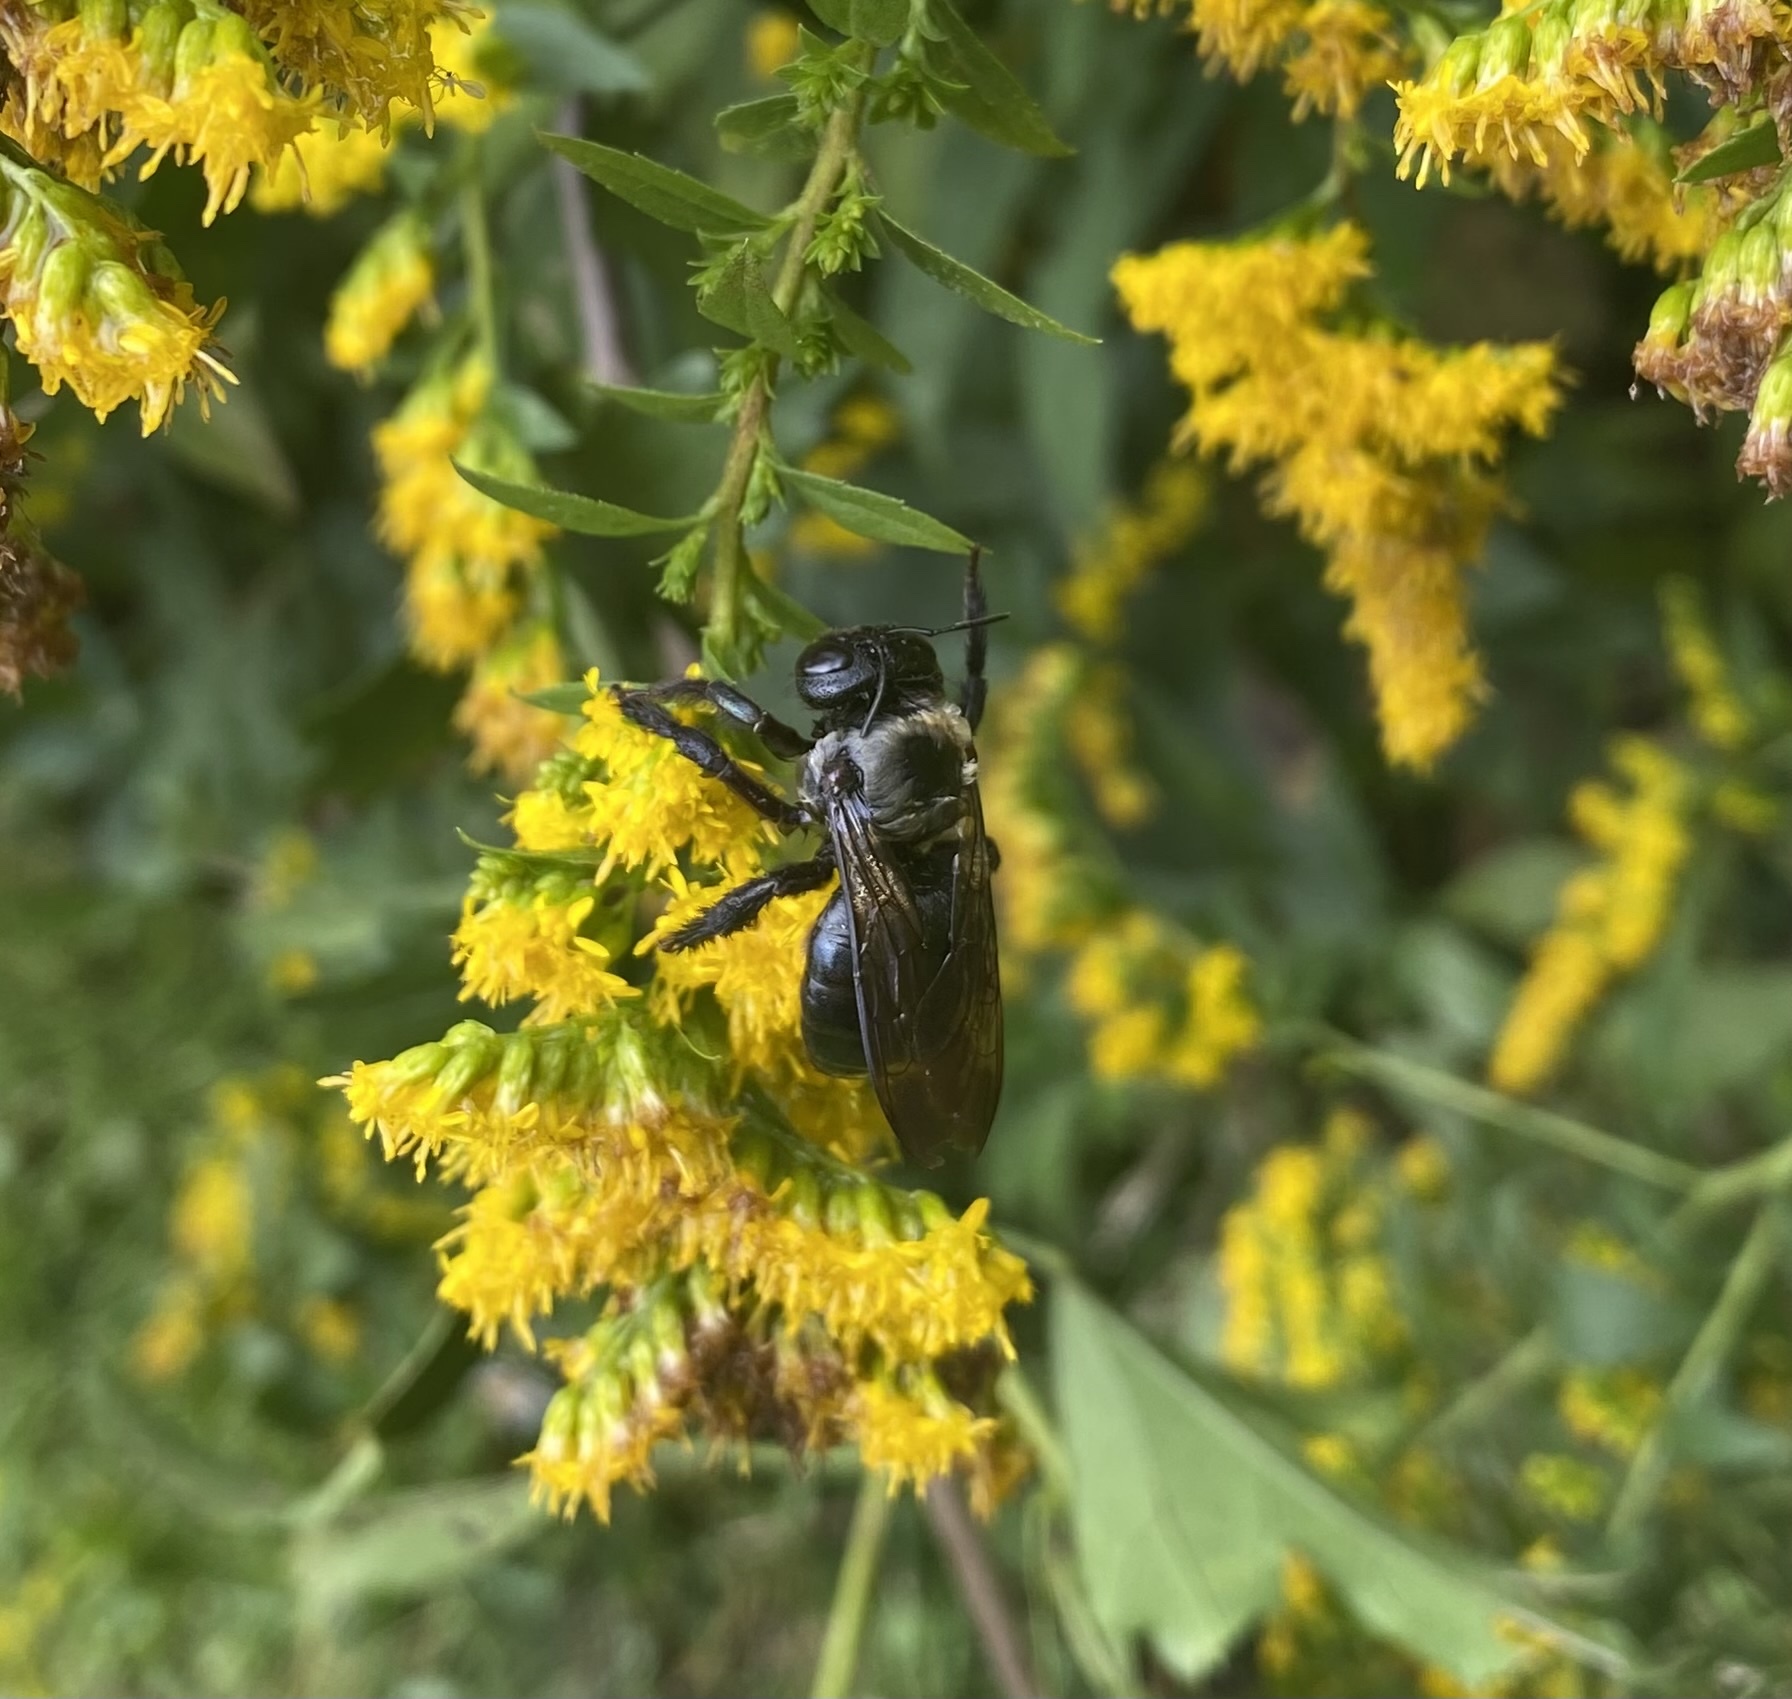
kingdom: Animalia
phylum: Arthropoda
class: Insecta
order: Hymenoptera
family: Apidae
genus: Xylocopa
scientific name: Xylocopa virginica
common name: Carpenter bee
